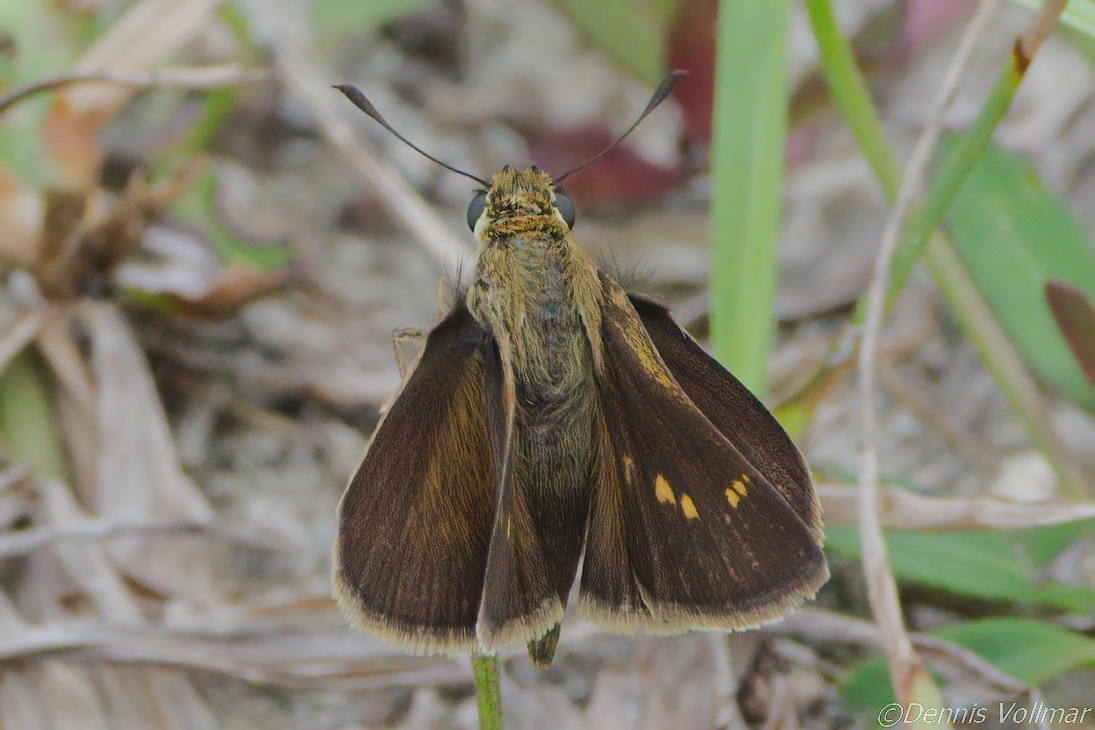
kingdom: Animalia
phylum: Arthropoda
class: Insecta
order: Lepidoptera
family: Hesperiidae
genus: Polites
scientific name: Polites egeremet
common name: Northern broken-dash
